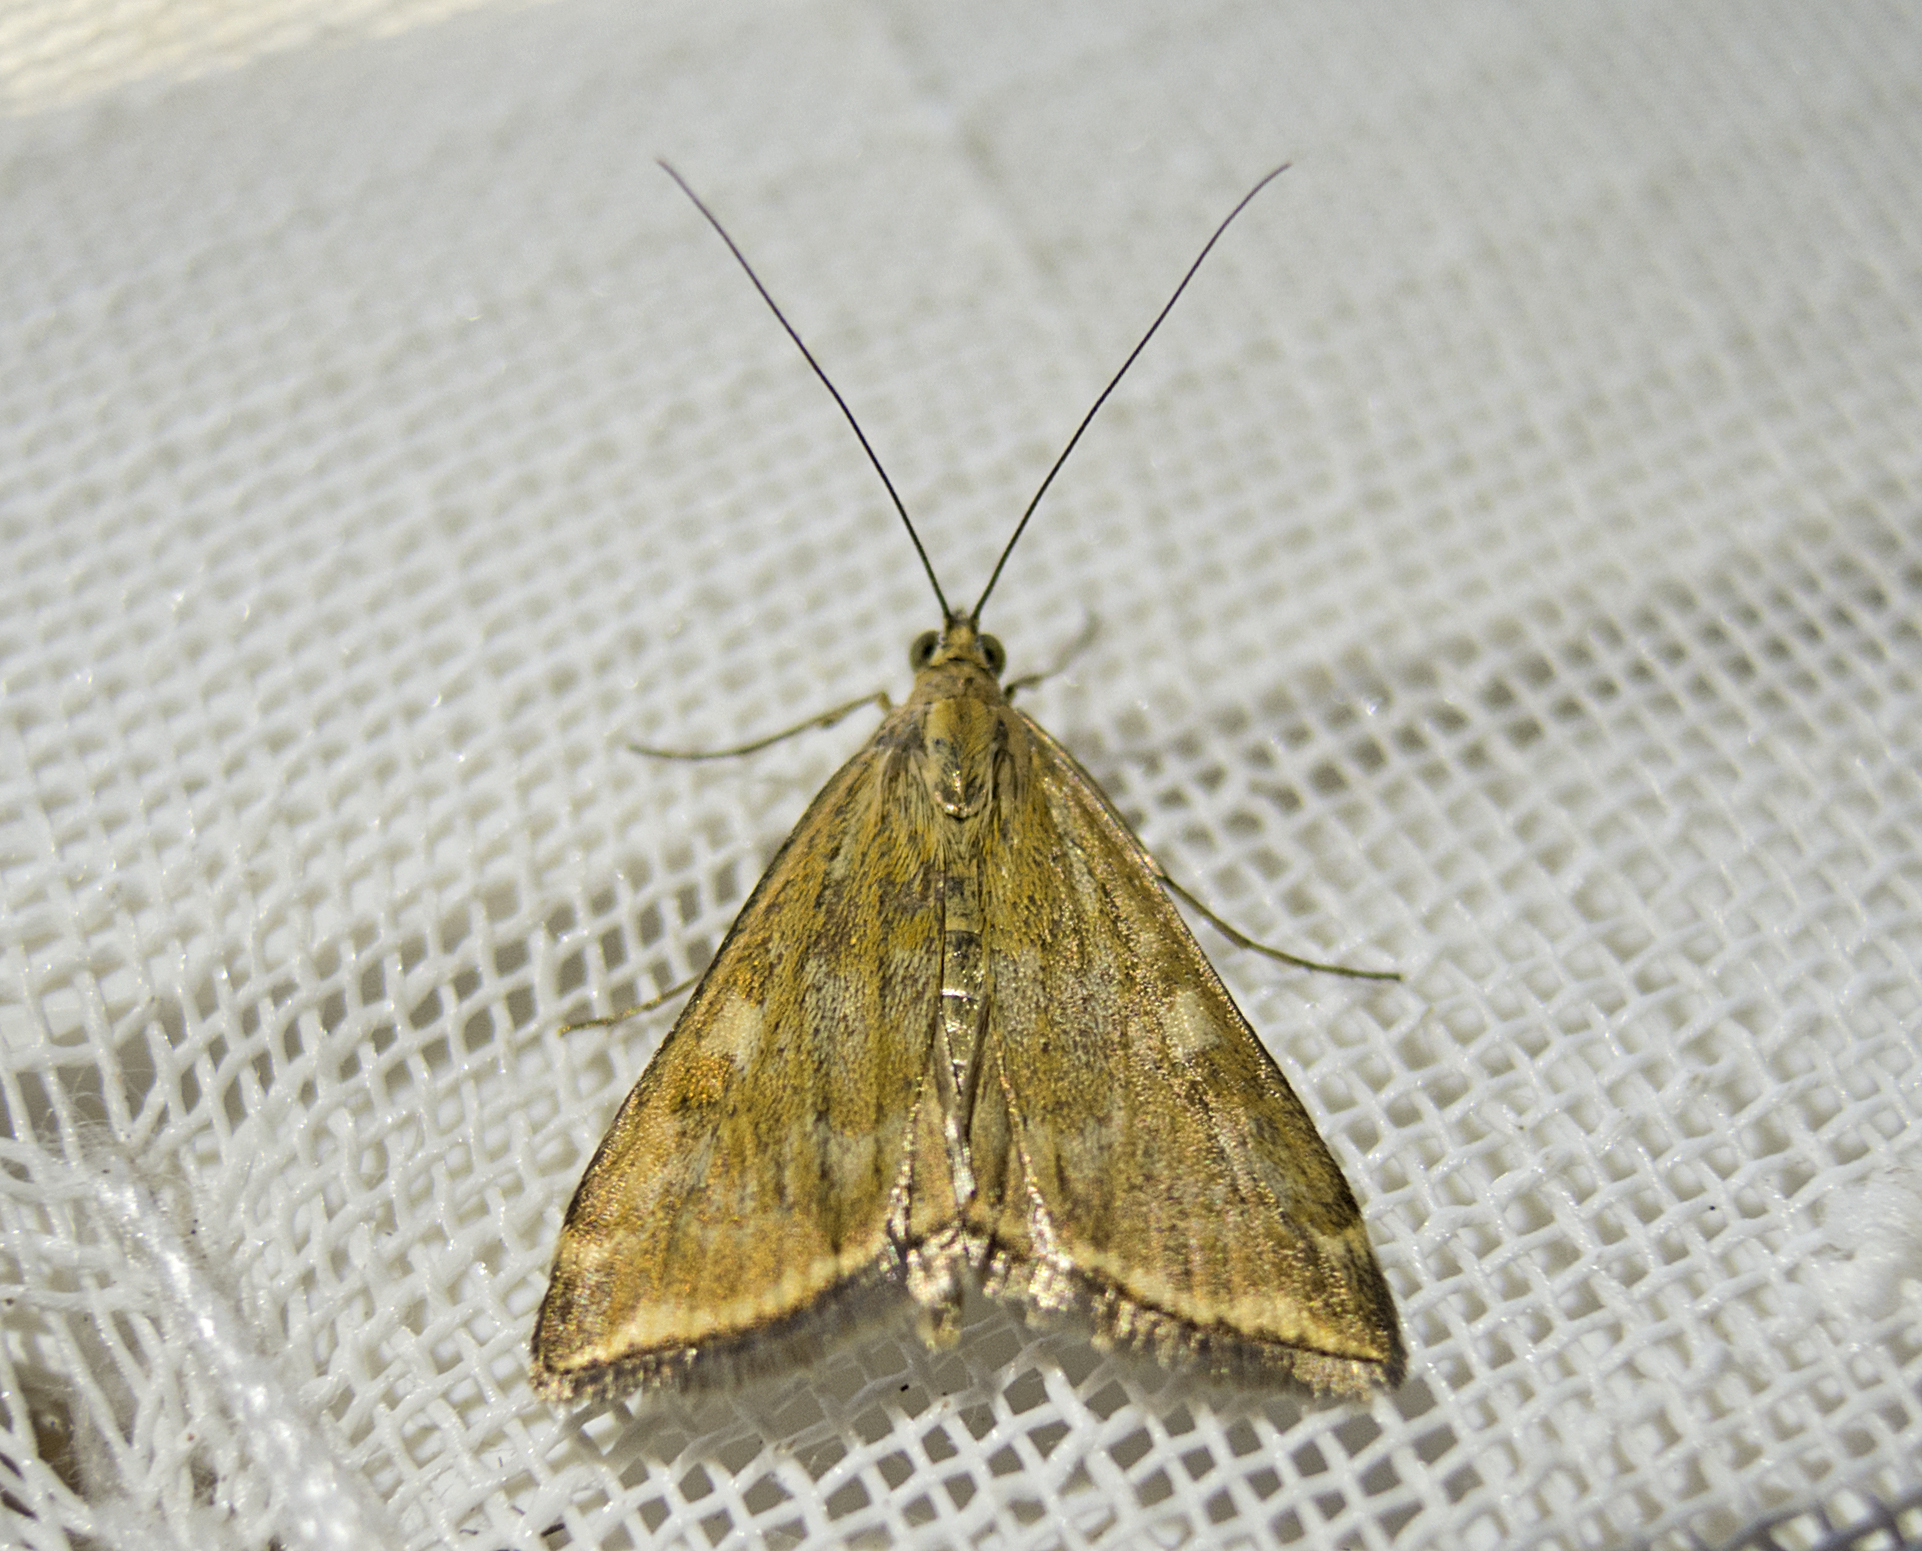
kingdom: Animalia
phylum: Arthropoda
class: Insecta
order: Lepidoptera
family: Crambidae
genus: Loxostege
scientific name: Loxostege sticticalis
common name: Crambid moth
